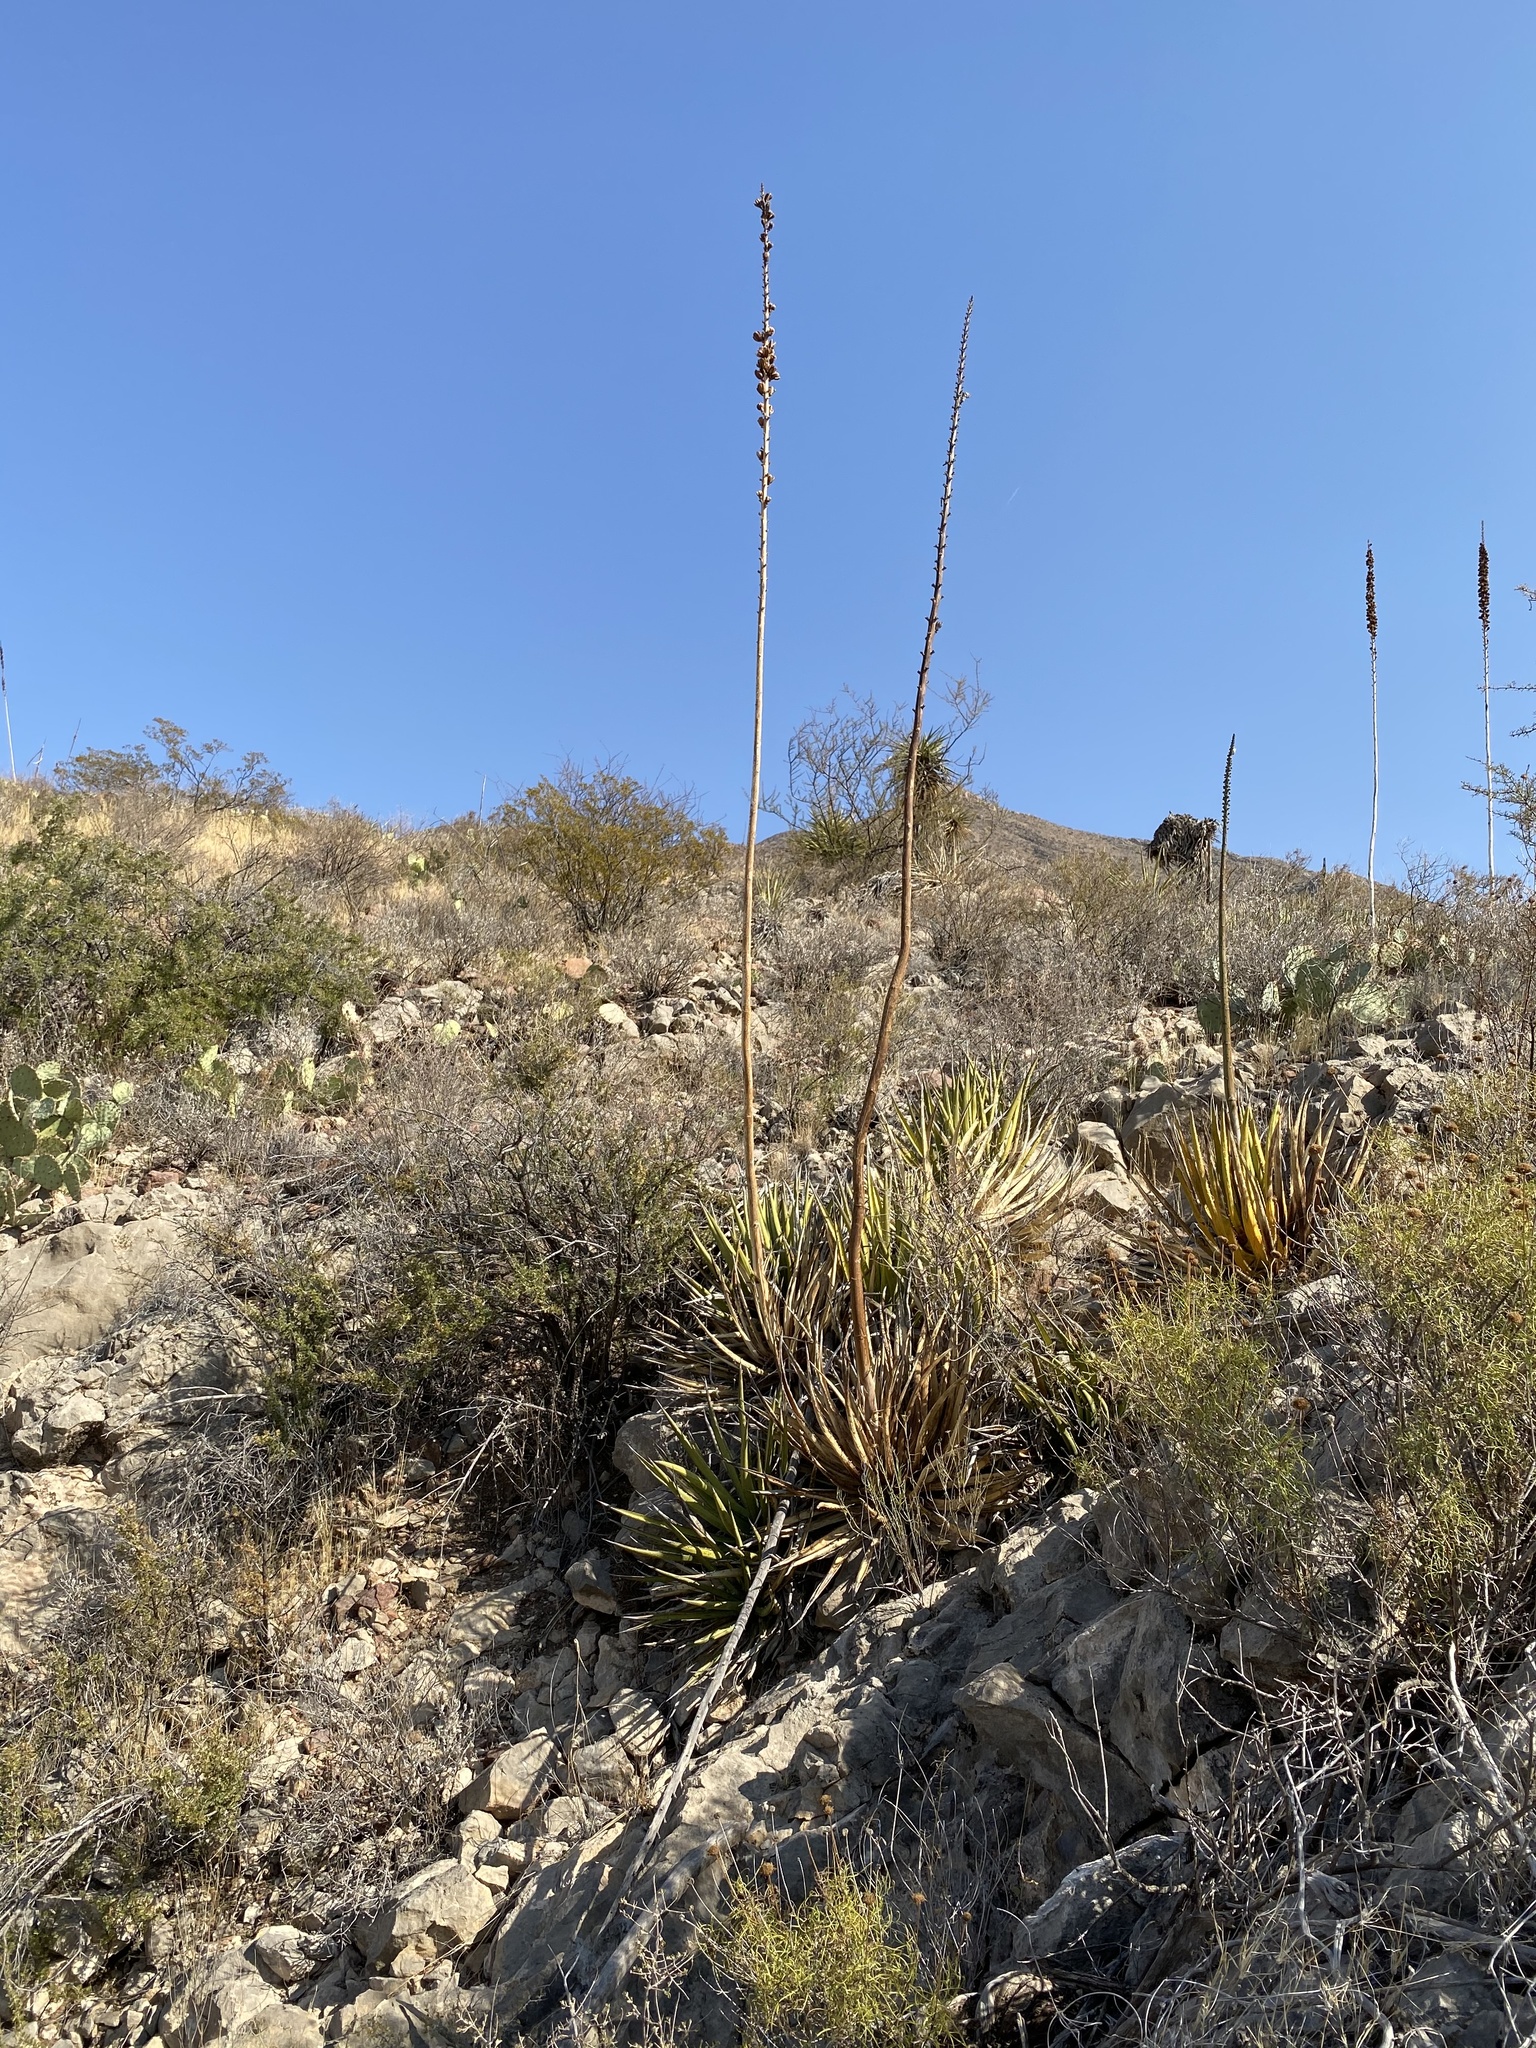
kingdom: Plantae
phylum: Tracheophyta
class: Liliopsida
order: Asparagales
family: Asparagaceae
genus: Agave
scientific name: Agave lechuguilla
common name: Lecheguilla agave
